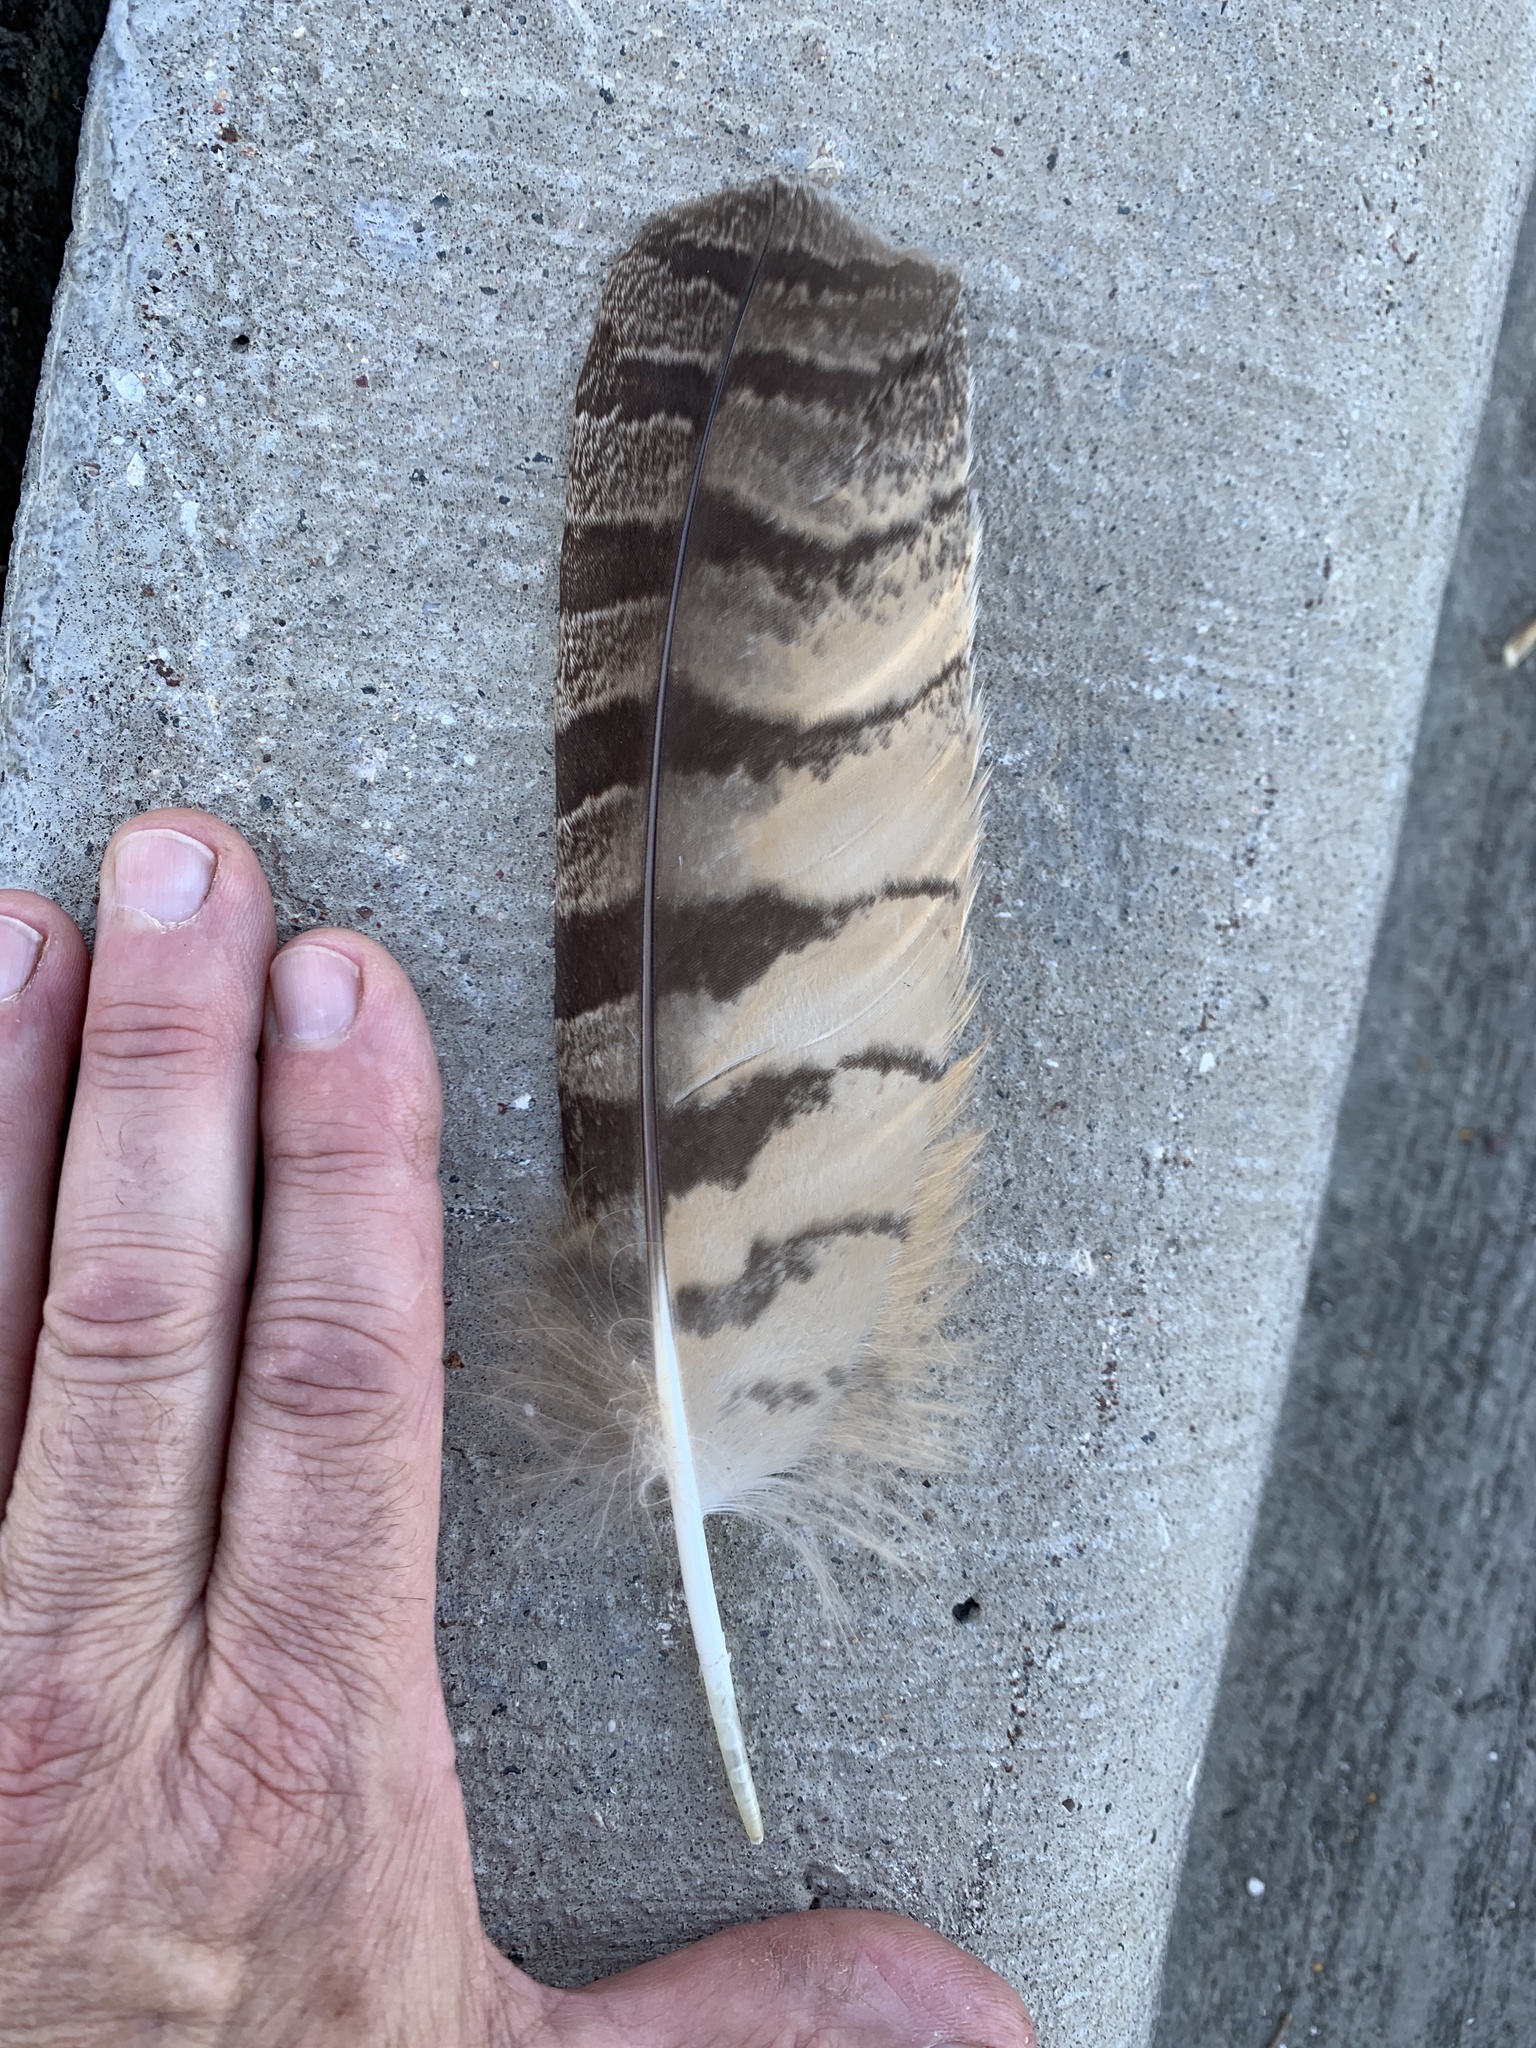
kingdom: Animalia
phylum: Chordata
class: Aves
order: Strigiformes
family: Strigidae
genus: Bubo
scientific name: Bubo virginianus
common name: Great horned owl
